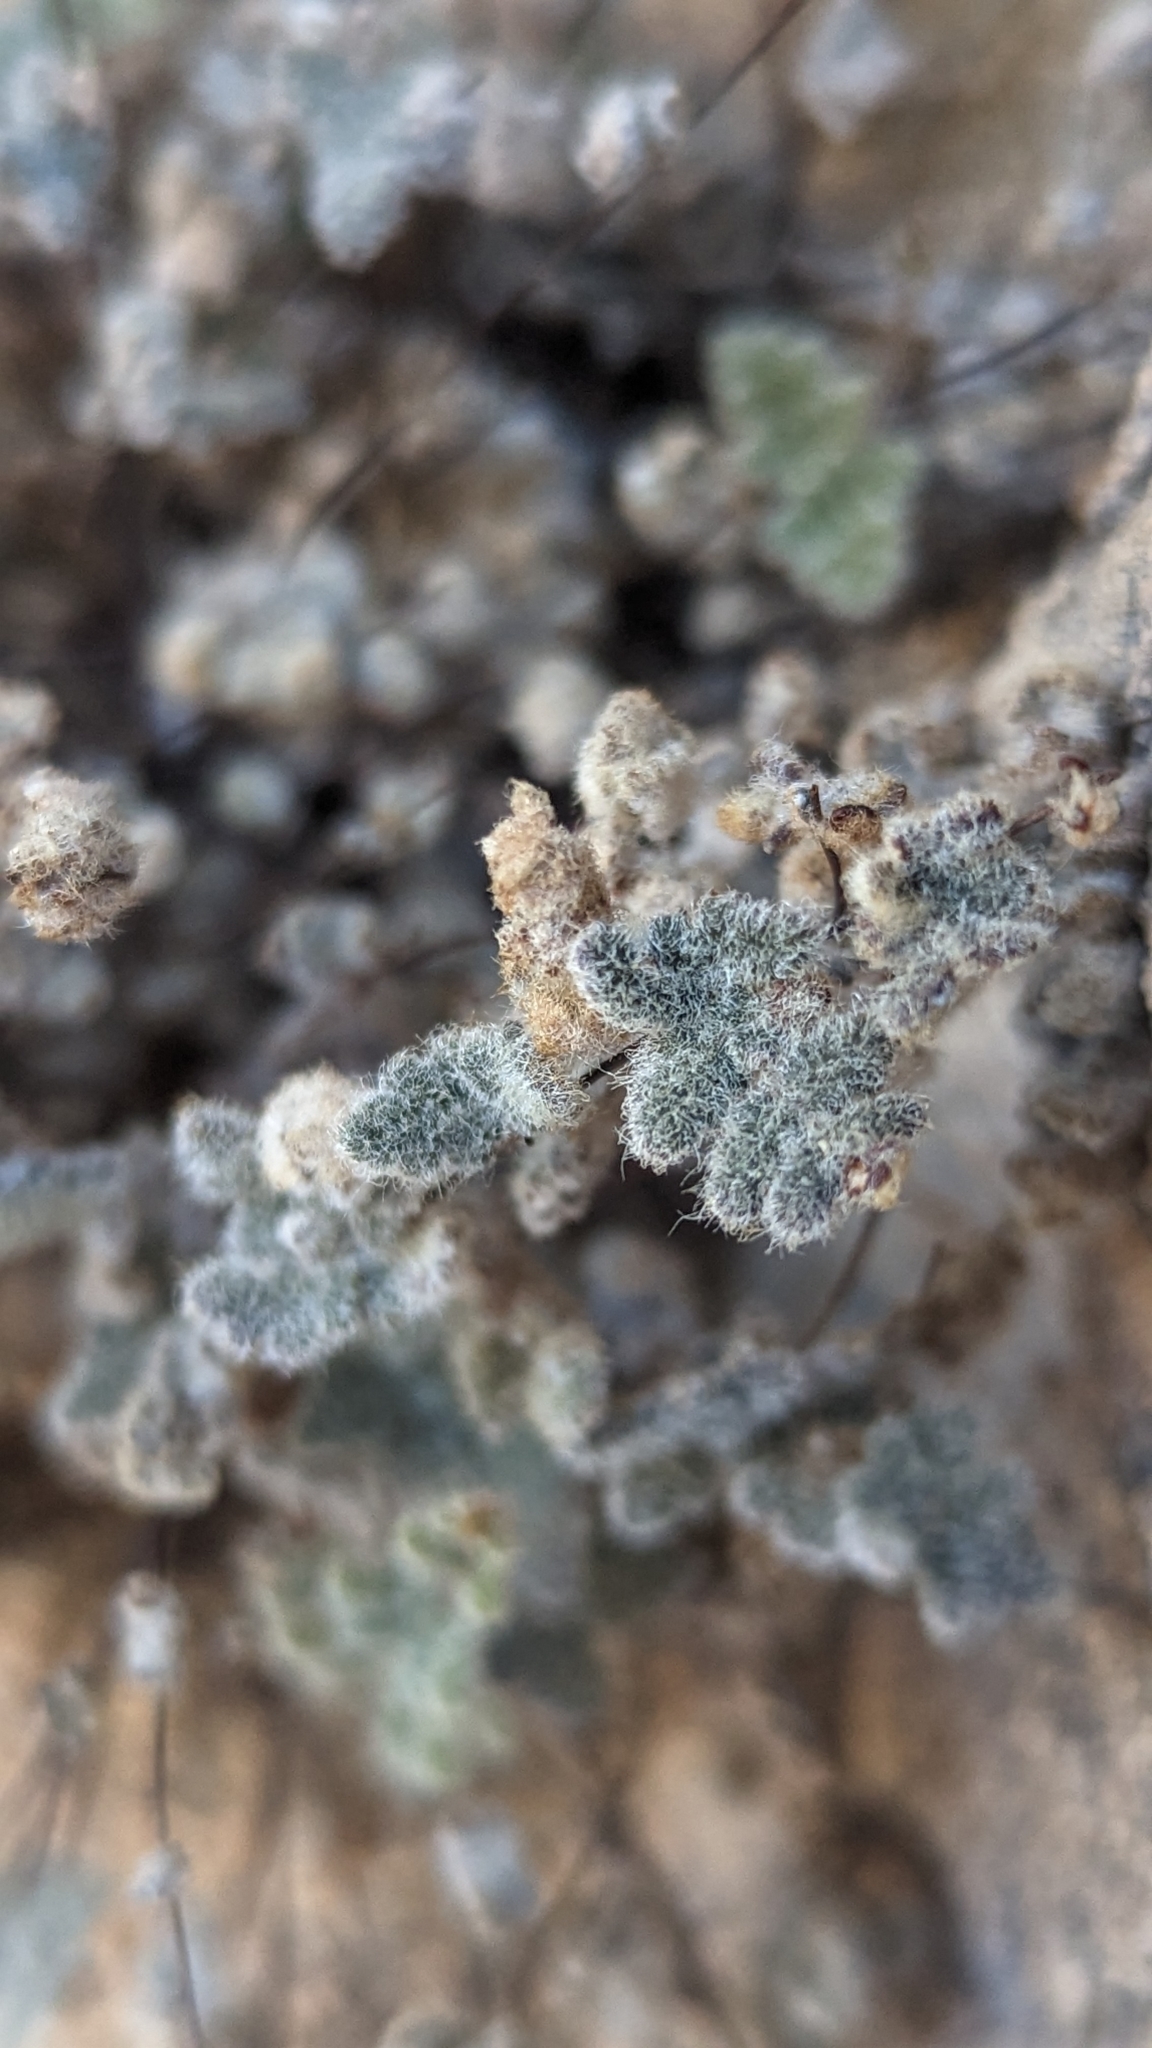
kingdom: Plantae
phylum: Tracheophyta
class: Polypodiopsida
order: Polypodiales
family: Pteridaceae
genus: Myriopteris
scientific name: Myriopteris parryi
